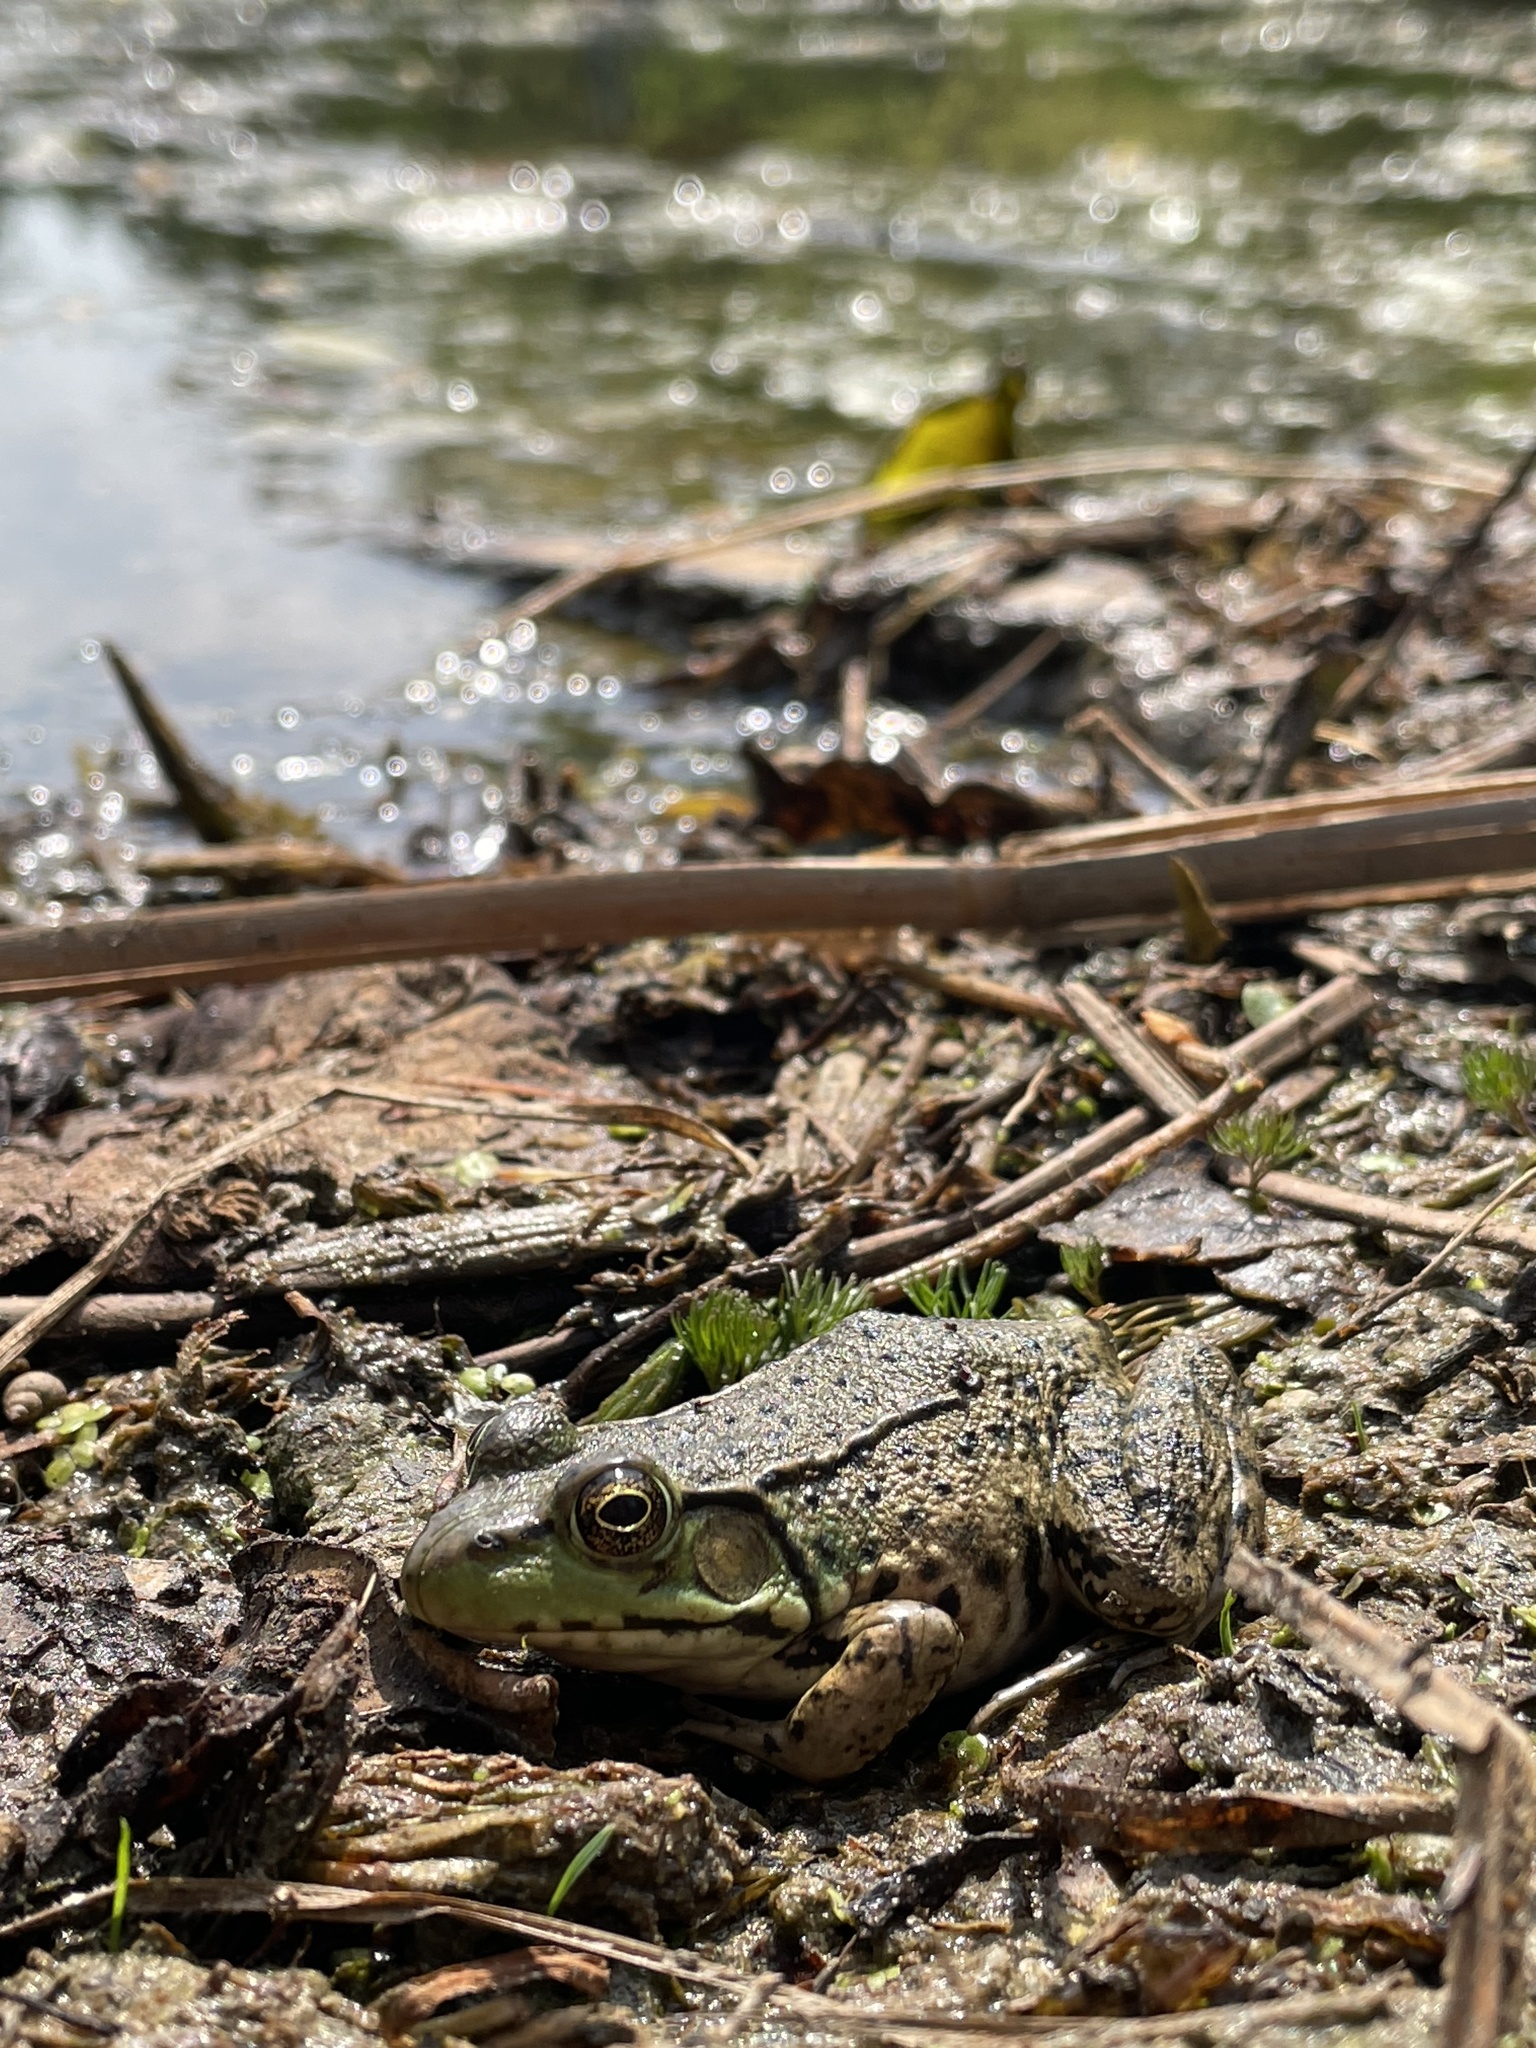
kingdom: Animalia
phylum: Chordata
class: Amphibia
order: Anura
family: Ranidae
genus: Lithobates
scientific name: Lithobates clamitans
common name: Green frog
